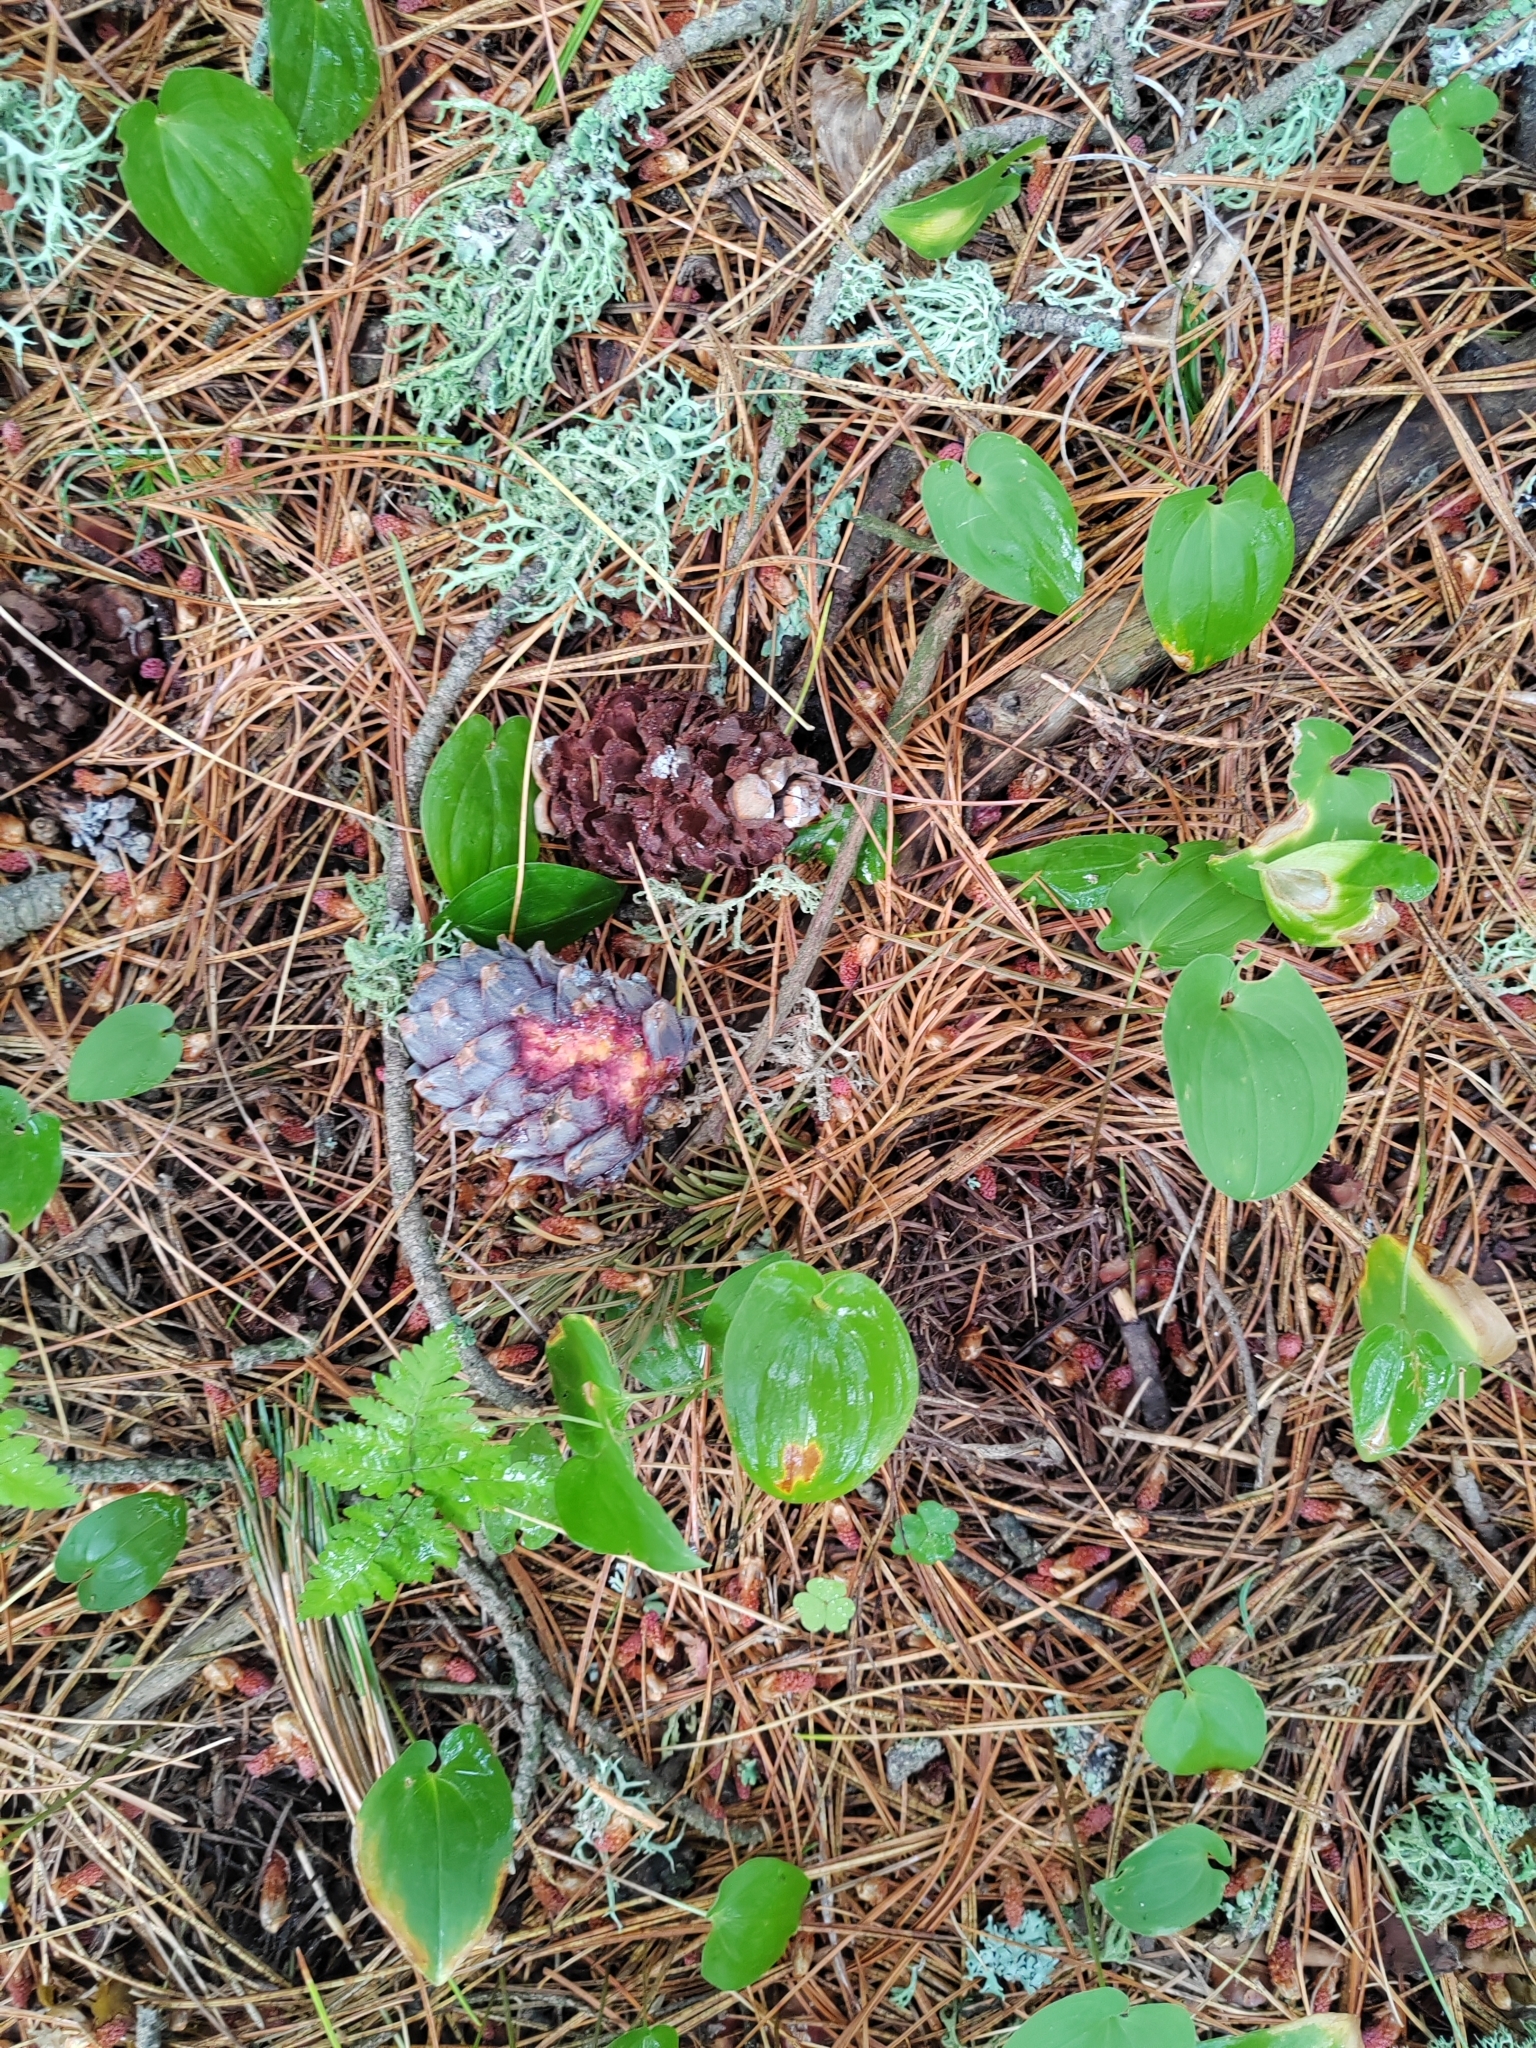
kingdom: Plantae
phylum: Tracheophyta
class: Pinopsida
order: Pinales
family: Pinaceae
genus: Pinus
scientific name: Pinus sibirica
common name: Siberian pine
